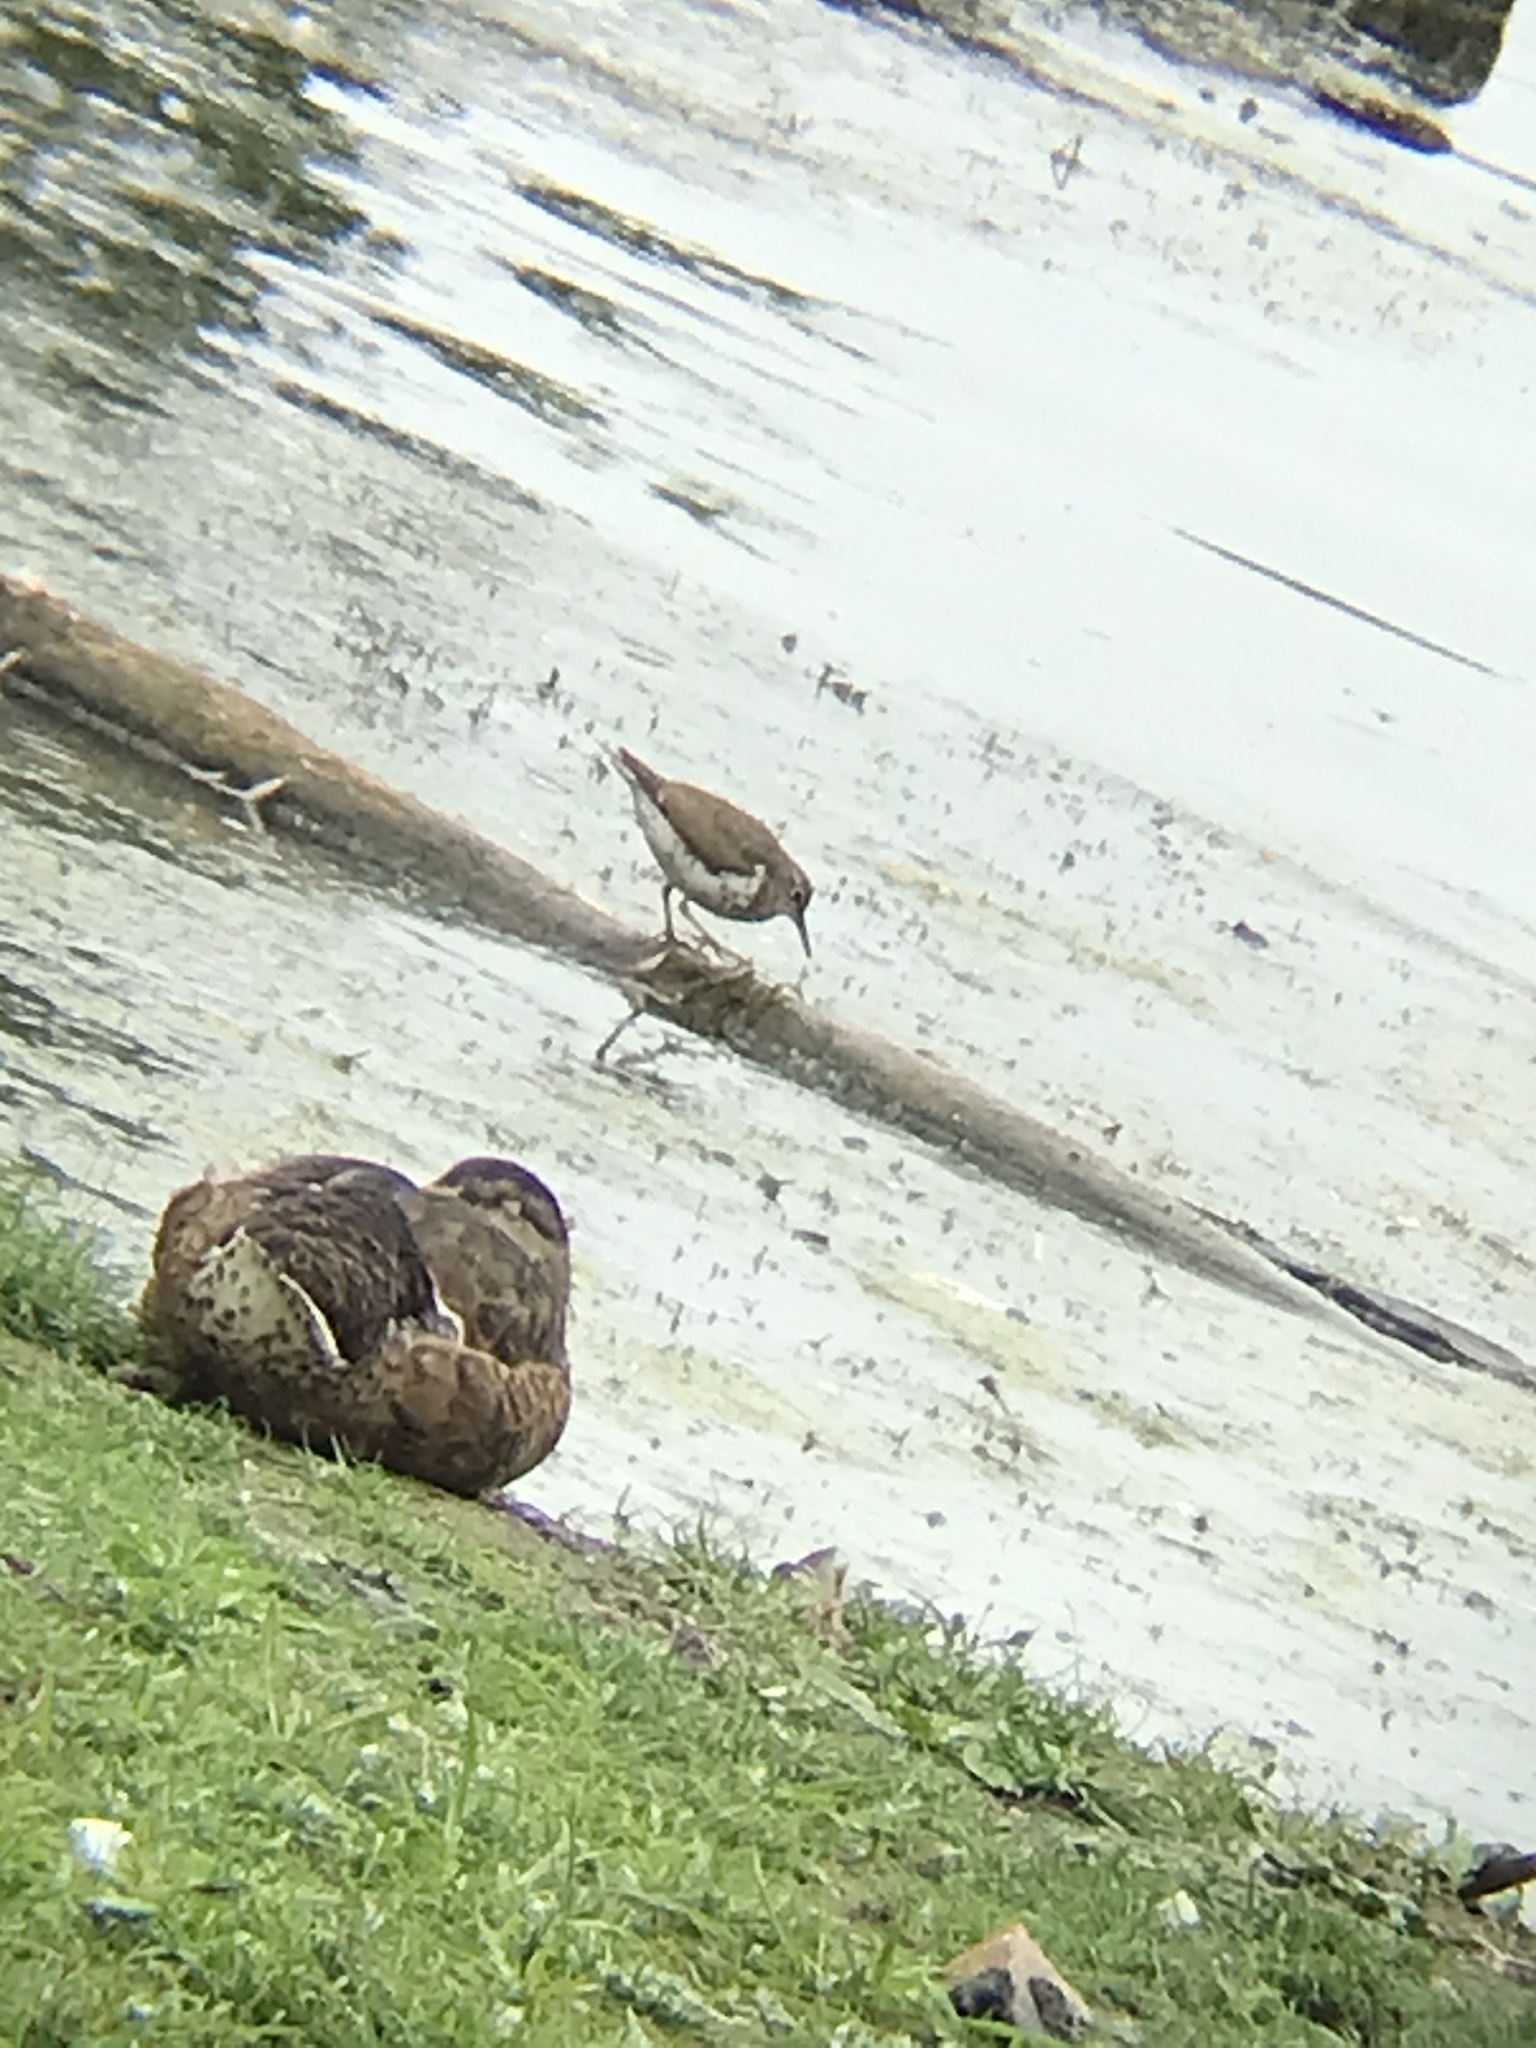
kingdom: Animalia
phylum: Chordata
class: Aves
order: Charadriiformes
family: Scolopacidae
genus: Actitis
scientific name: Actitis macularius
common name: Spotted sandpiper
